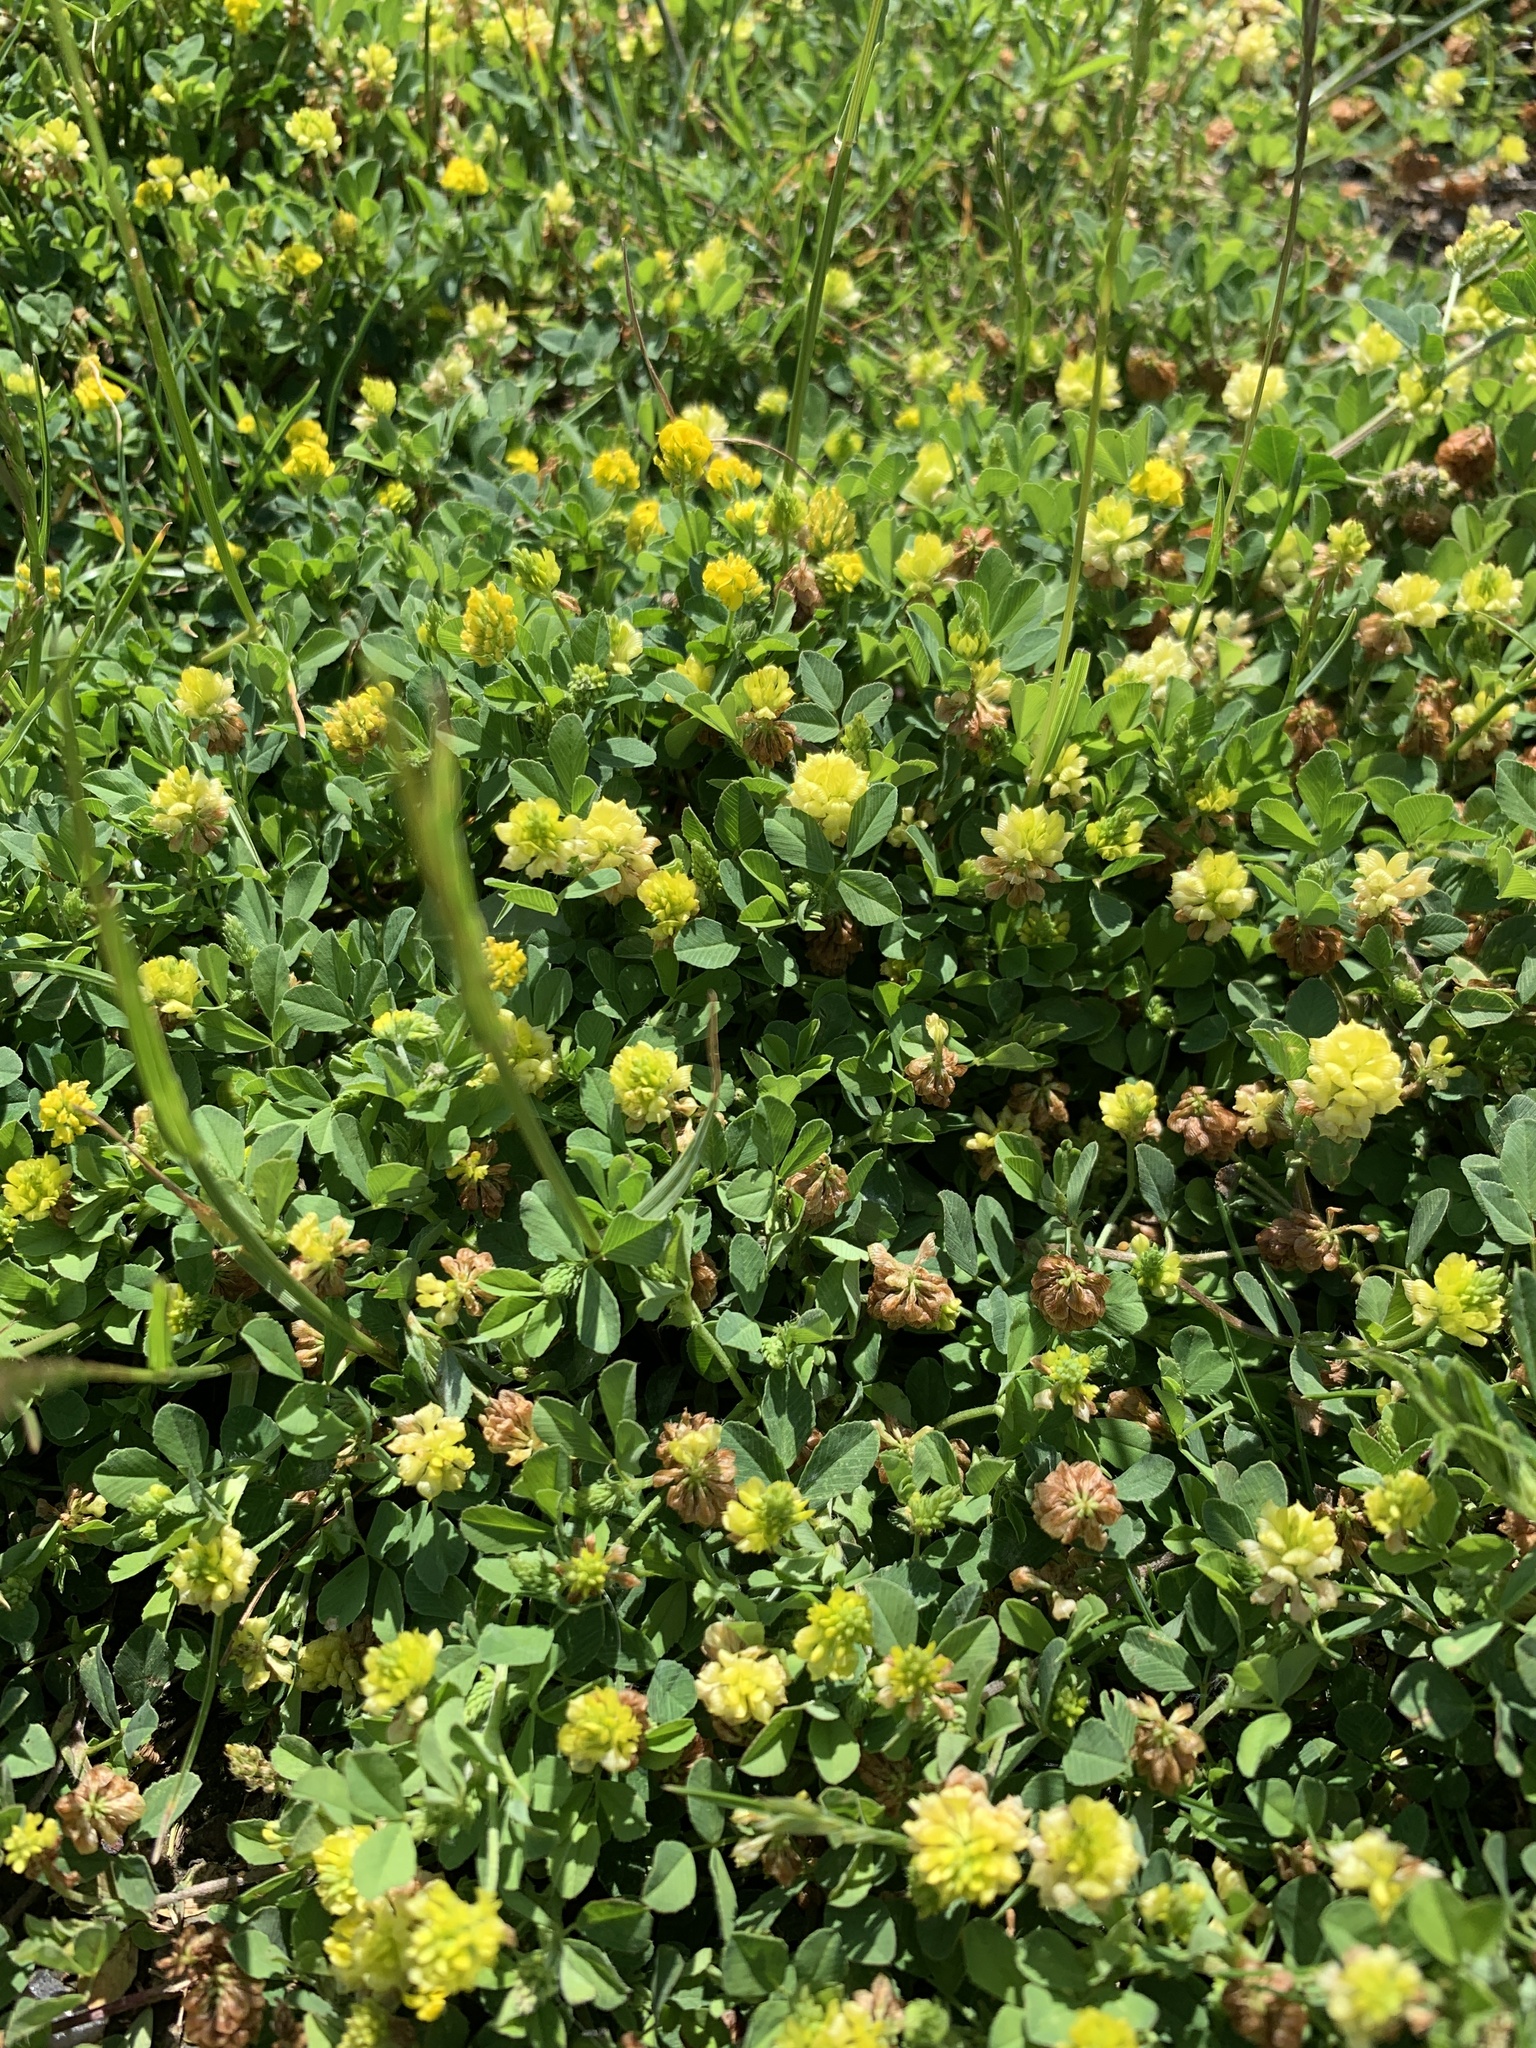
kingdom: Plantae
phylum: Tracheophyta
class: Magnoliopsida
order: Fabales
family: Fabaceae
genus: Trifolium
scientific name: Trifolium campestre
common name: Field clover
